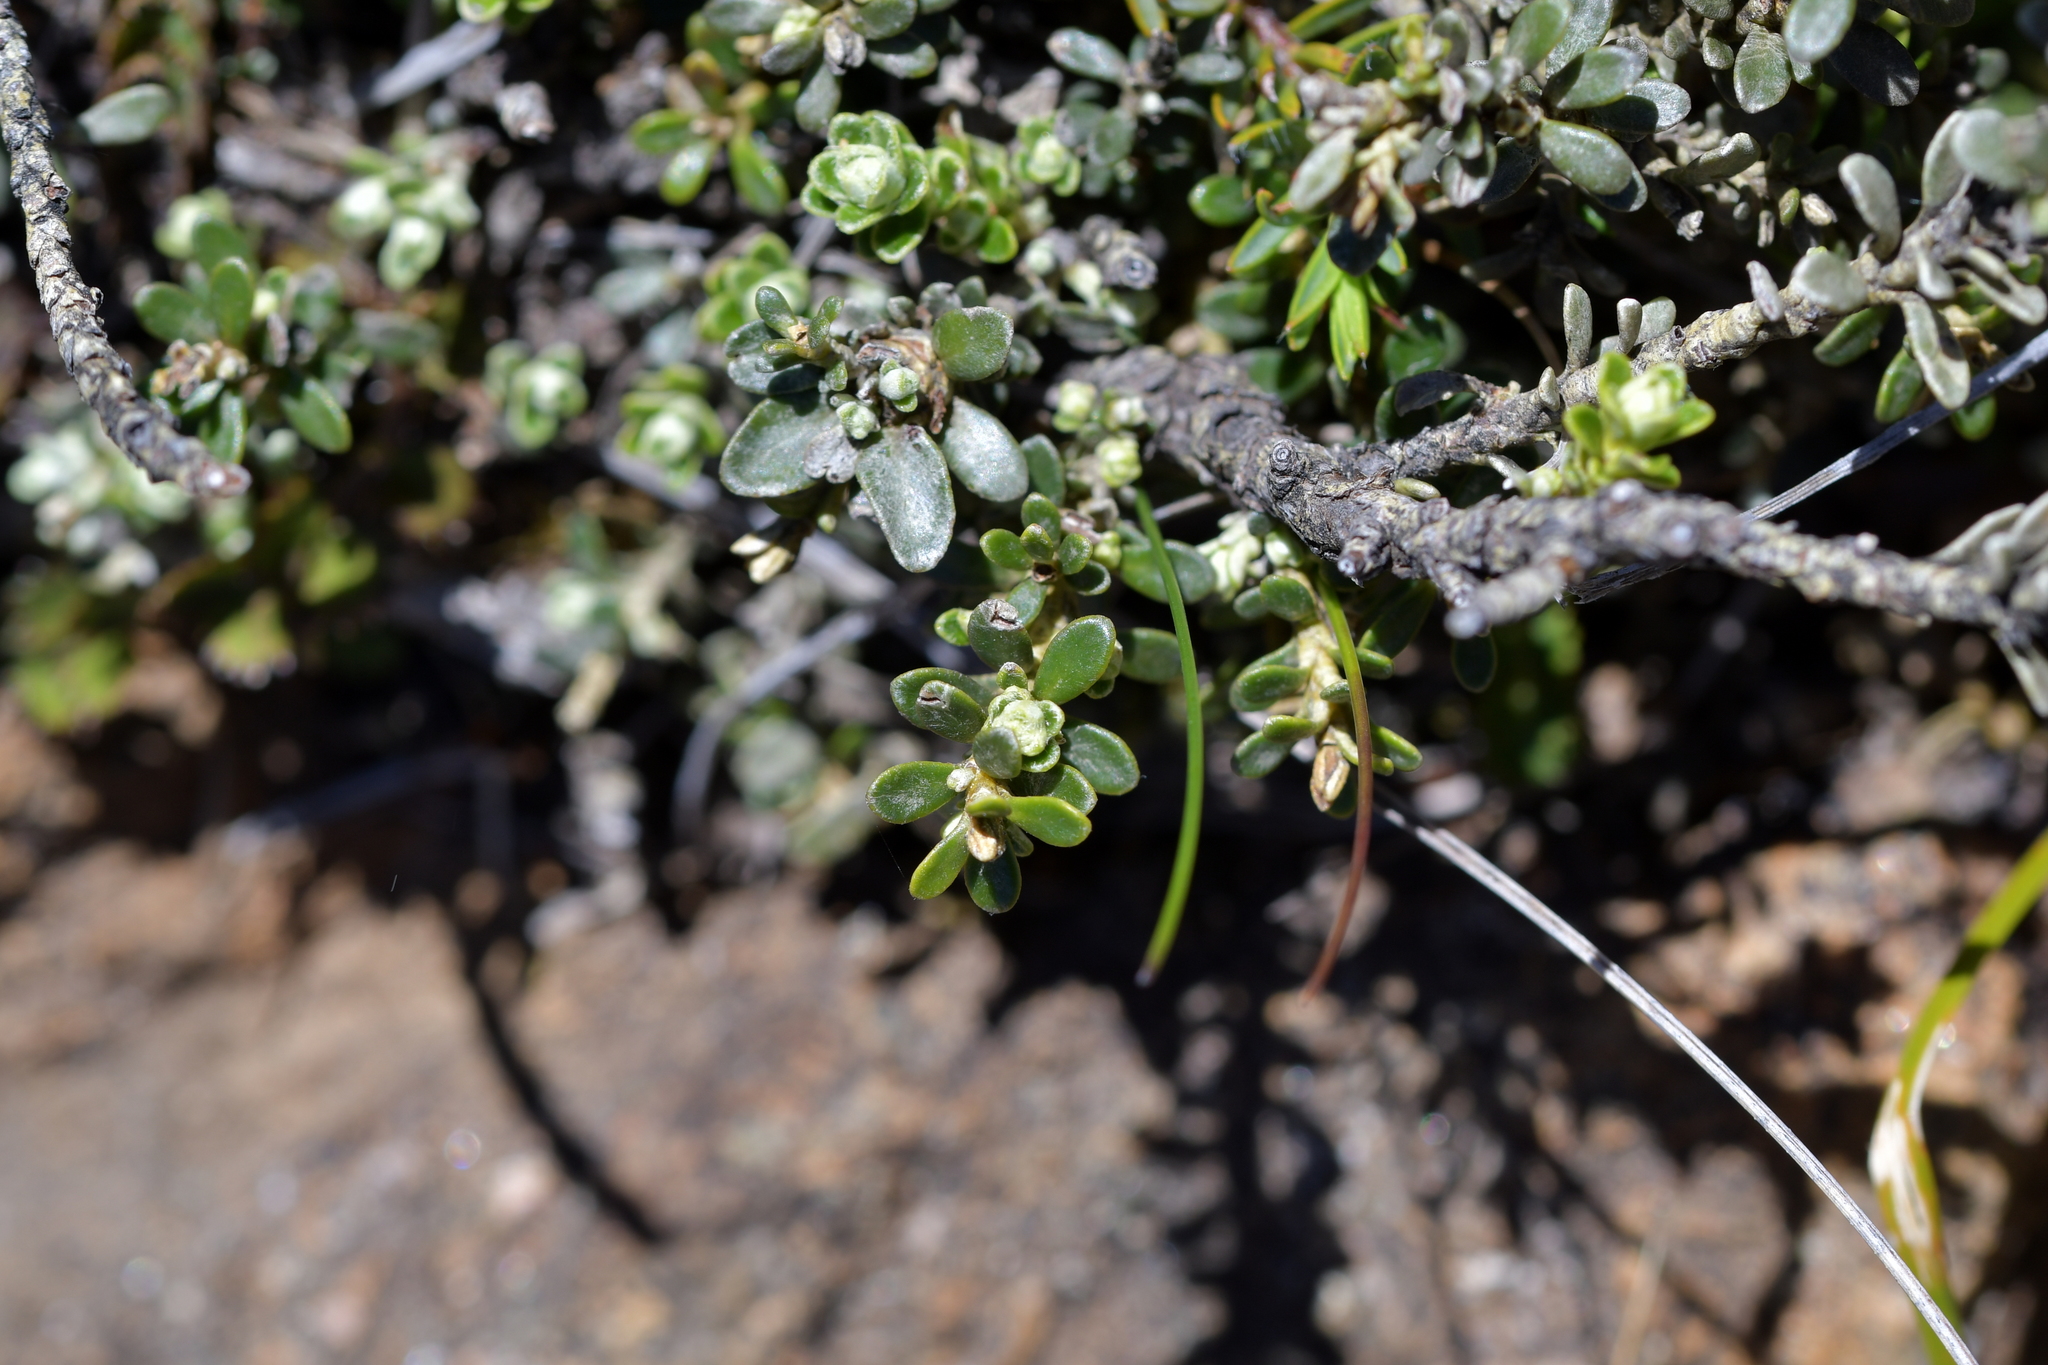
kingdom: Plantae
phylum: Tracheophyta
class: Magnoliopsida
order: Asterales
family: Asteraceae
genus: Olearia
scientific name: Olearia nummularifolia
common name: Sticky daisybush
